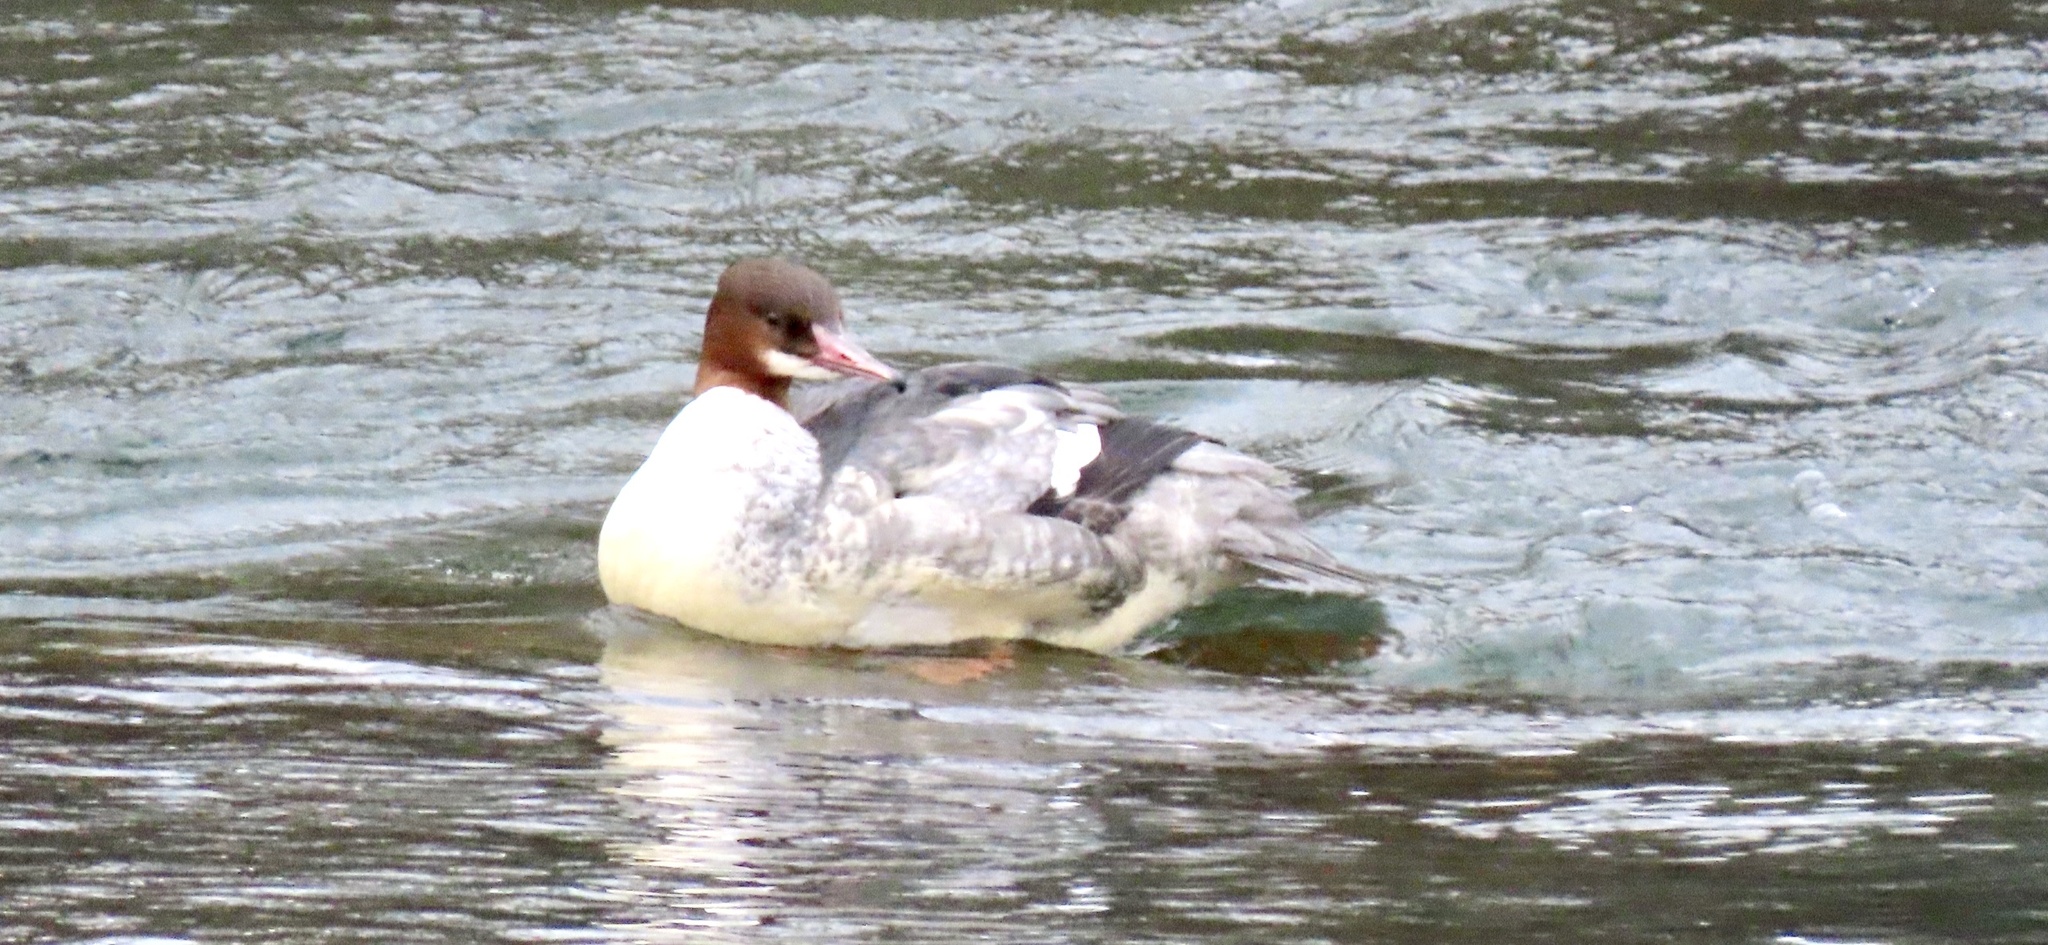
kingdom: Animalia
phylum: Chordata
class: Aves
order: Anseriformes
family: Anatidae
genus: Mergus
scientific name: Mergus merganser
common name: Common merganser
